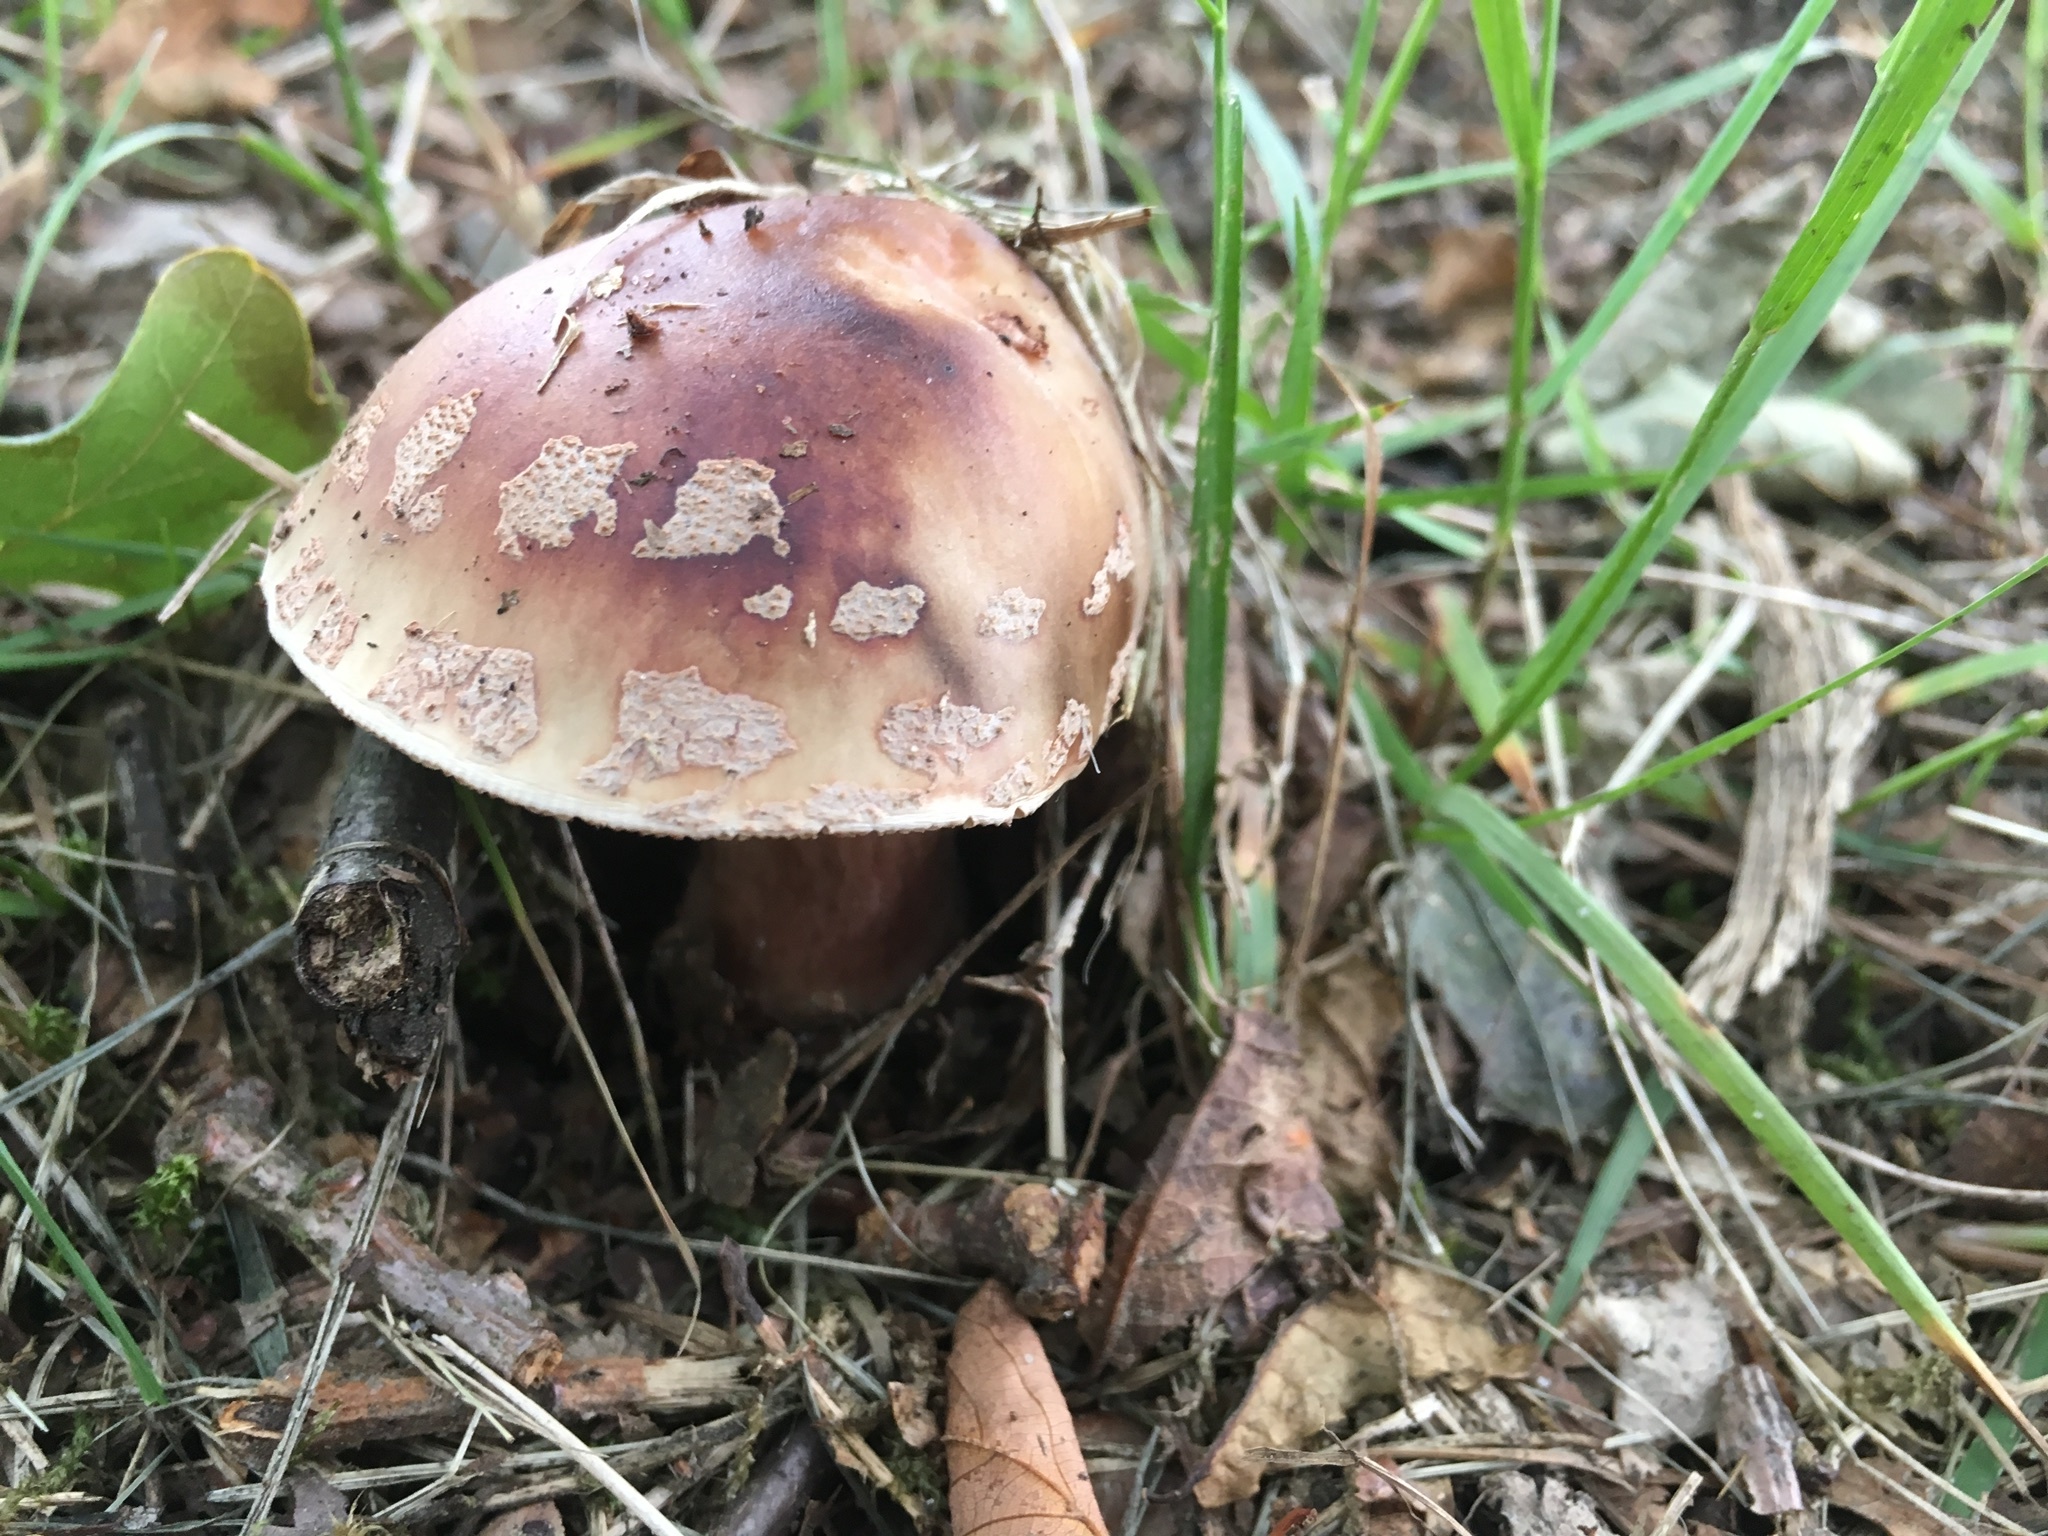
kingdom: Fungi
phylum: Basidiomycota
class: Agaricomycetes
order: Agaricales
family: Amanitaceae
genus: Amanita
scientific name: Amanita rubescens
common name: Blusher
